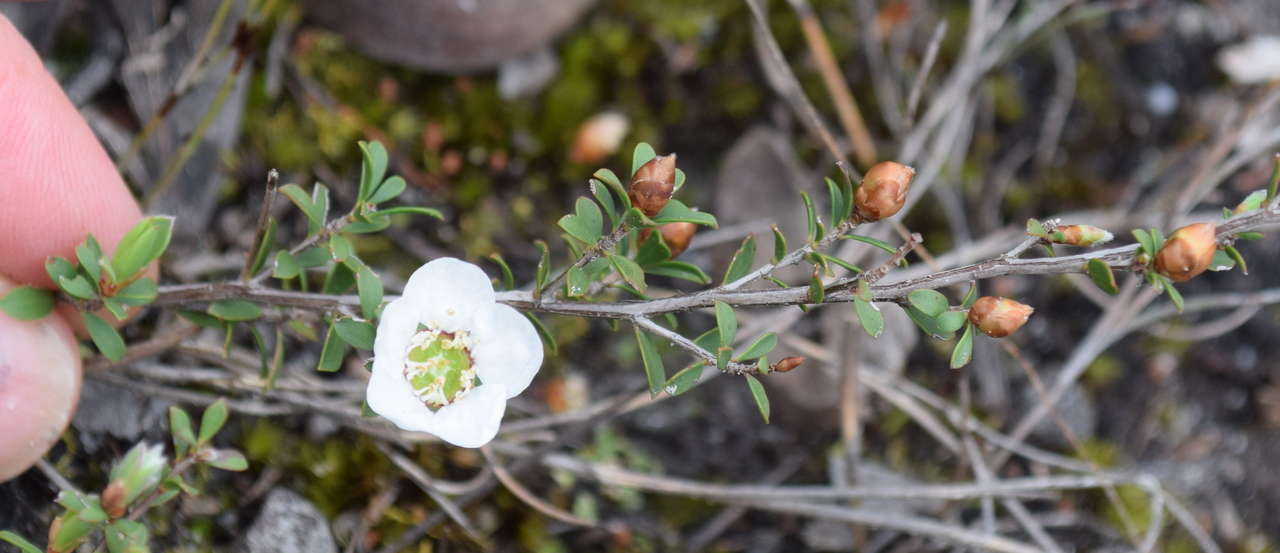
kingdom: Plantae
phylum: Tracheophyta
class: Magnoliopsida
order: Myrtales
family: Myrtaceae
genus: Leptospermum
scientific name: Leptospermum myrsinoides
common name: Heath teatree
